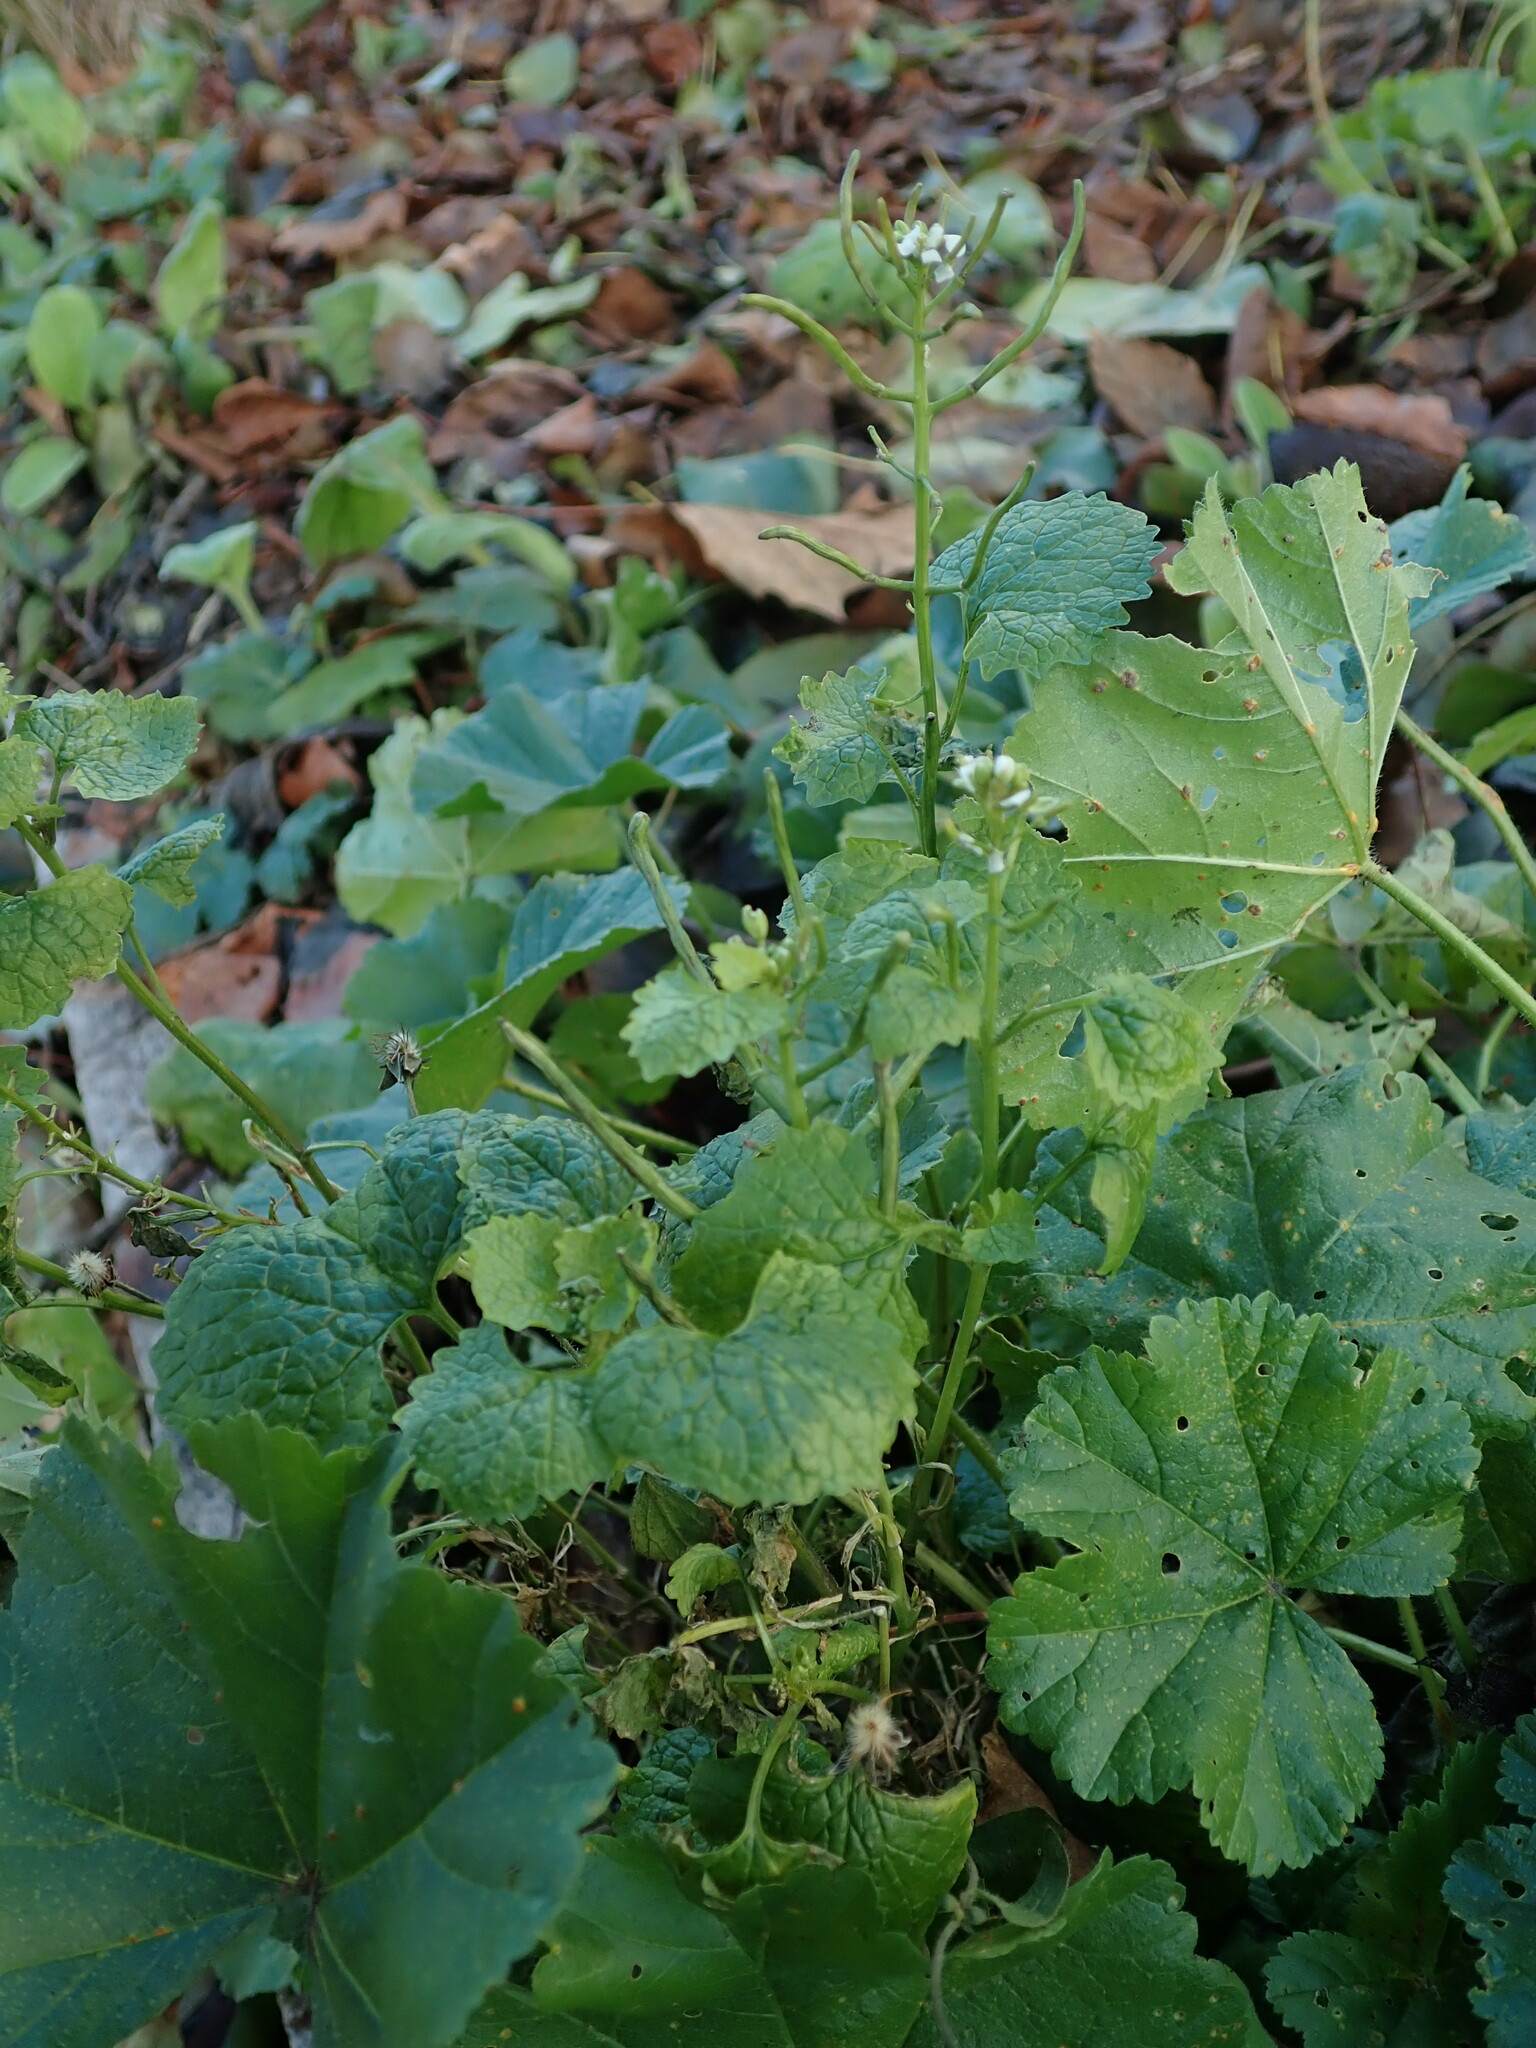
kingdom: Plantae
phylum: Tracheophyta
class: Magnoliopsida
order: Brassicales
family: Brassicaceae
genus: Alliaria
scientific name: Alliaria petiolata
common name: Garlic mustard
